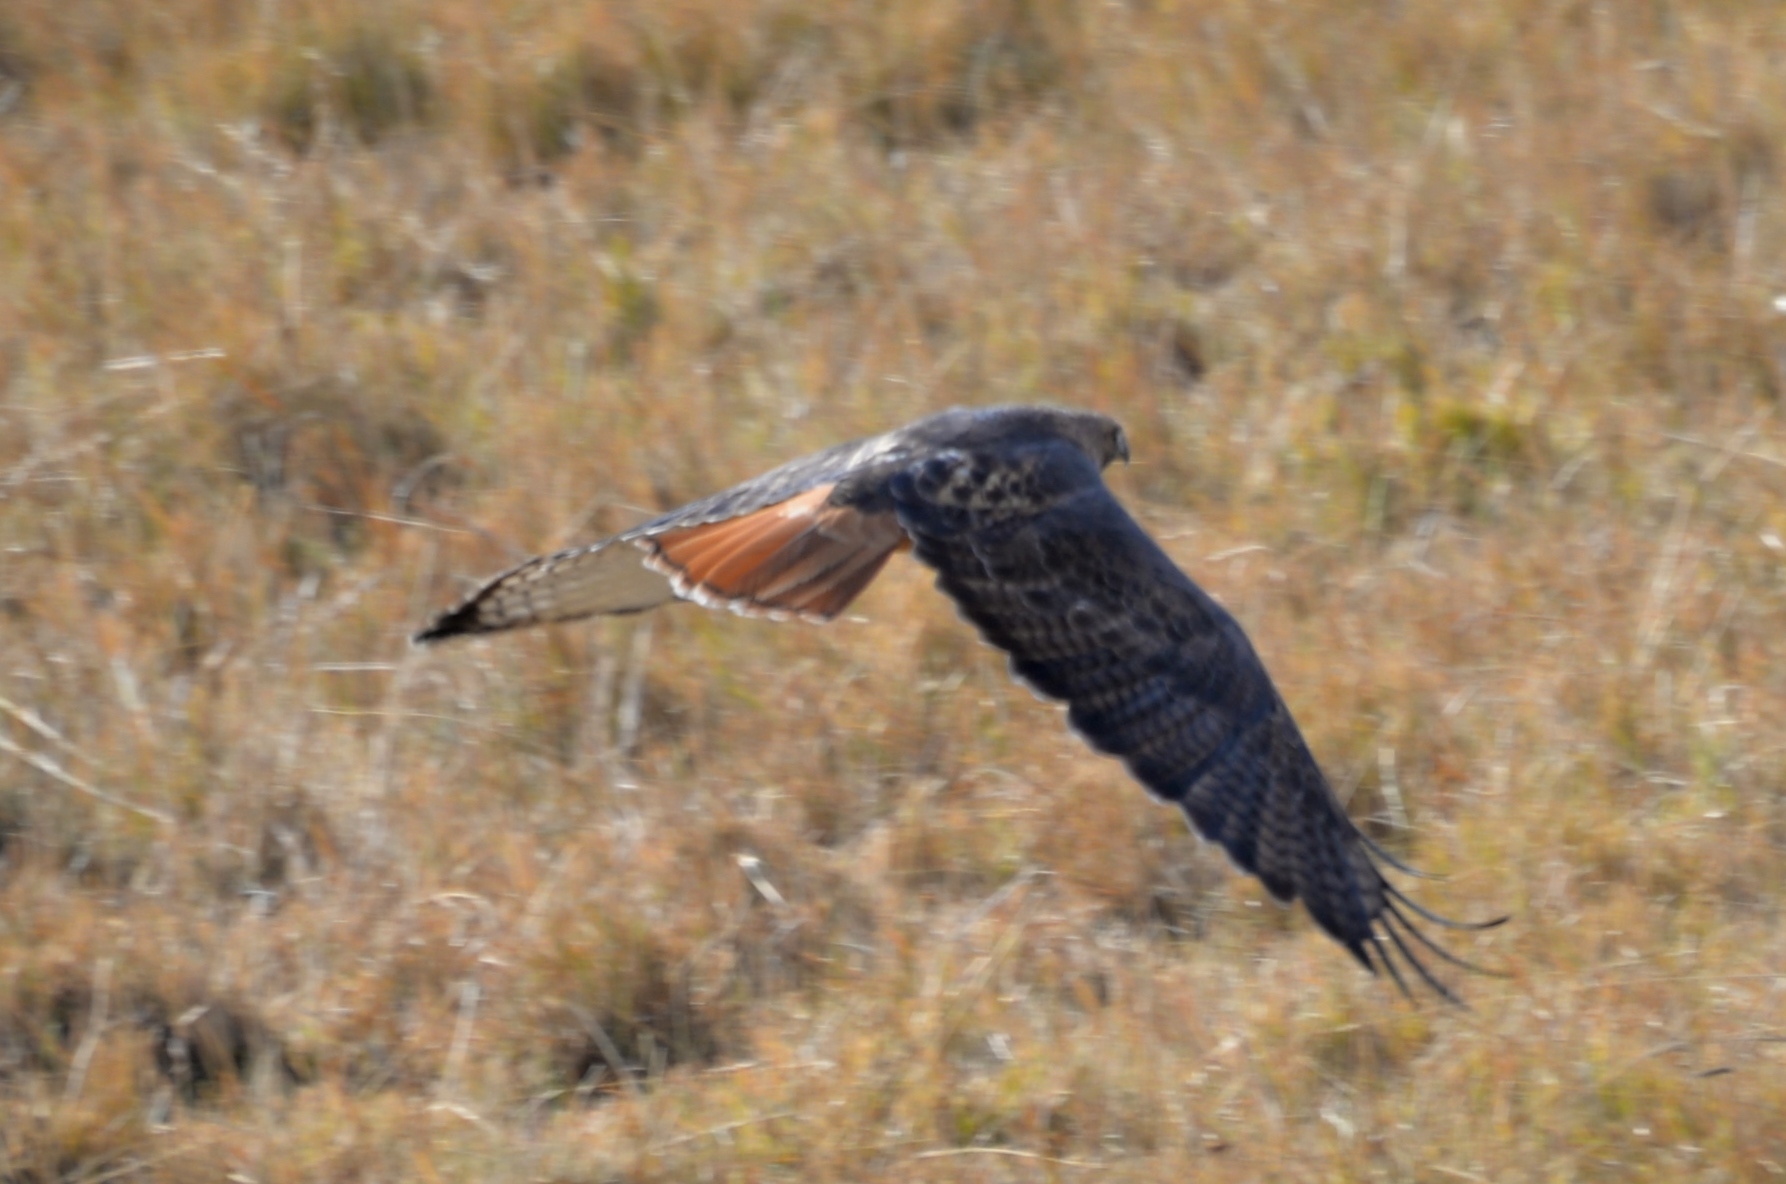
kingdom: Animalia
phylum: Chordata
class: Aves
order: Accipitriformes
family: Accipitridae
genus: Buteo
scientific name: Buteo jamaicensis
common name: Red-tailed hawk
